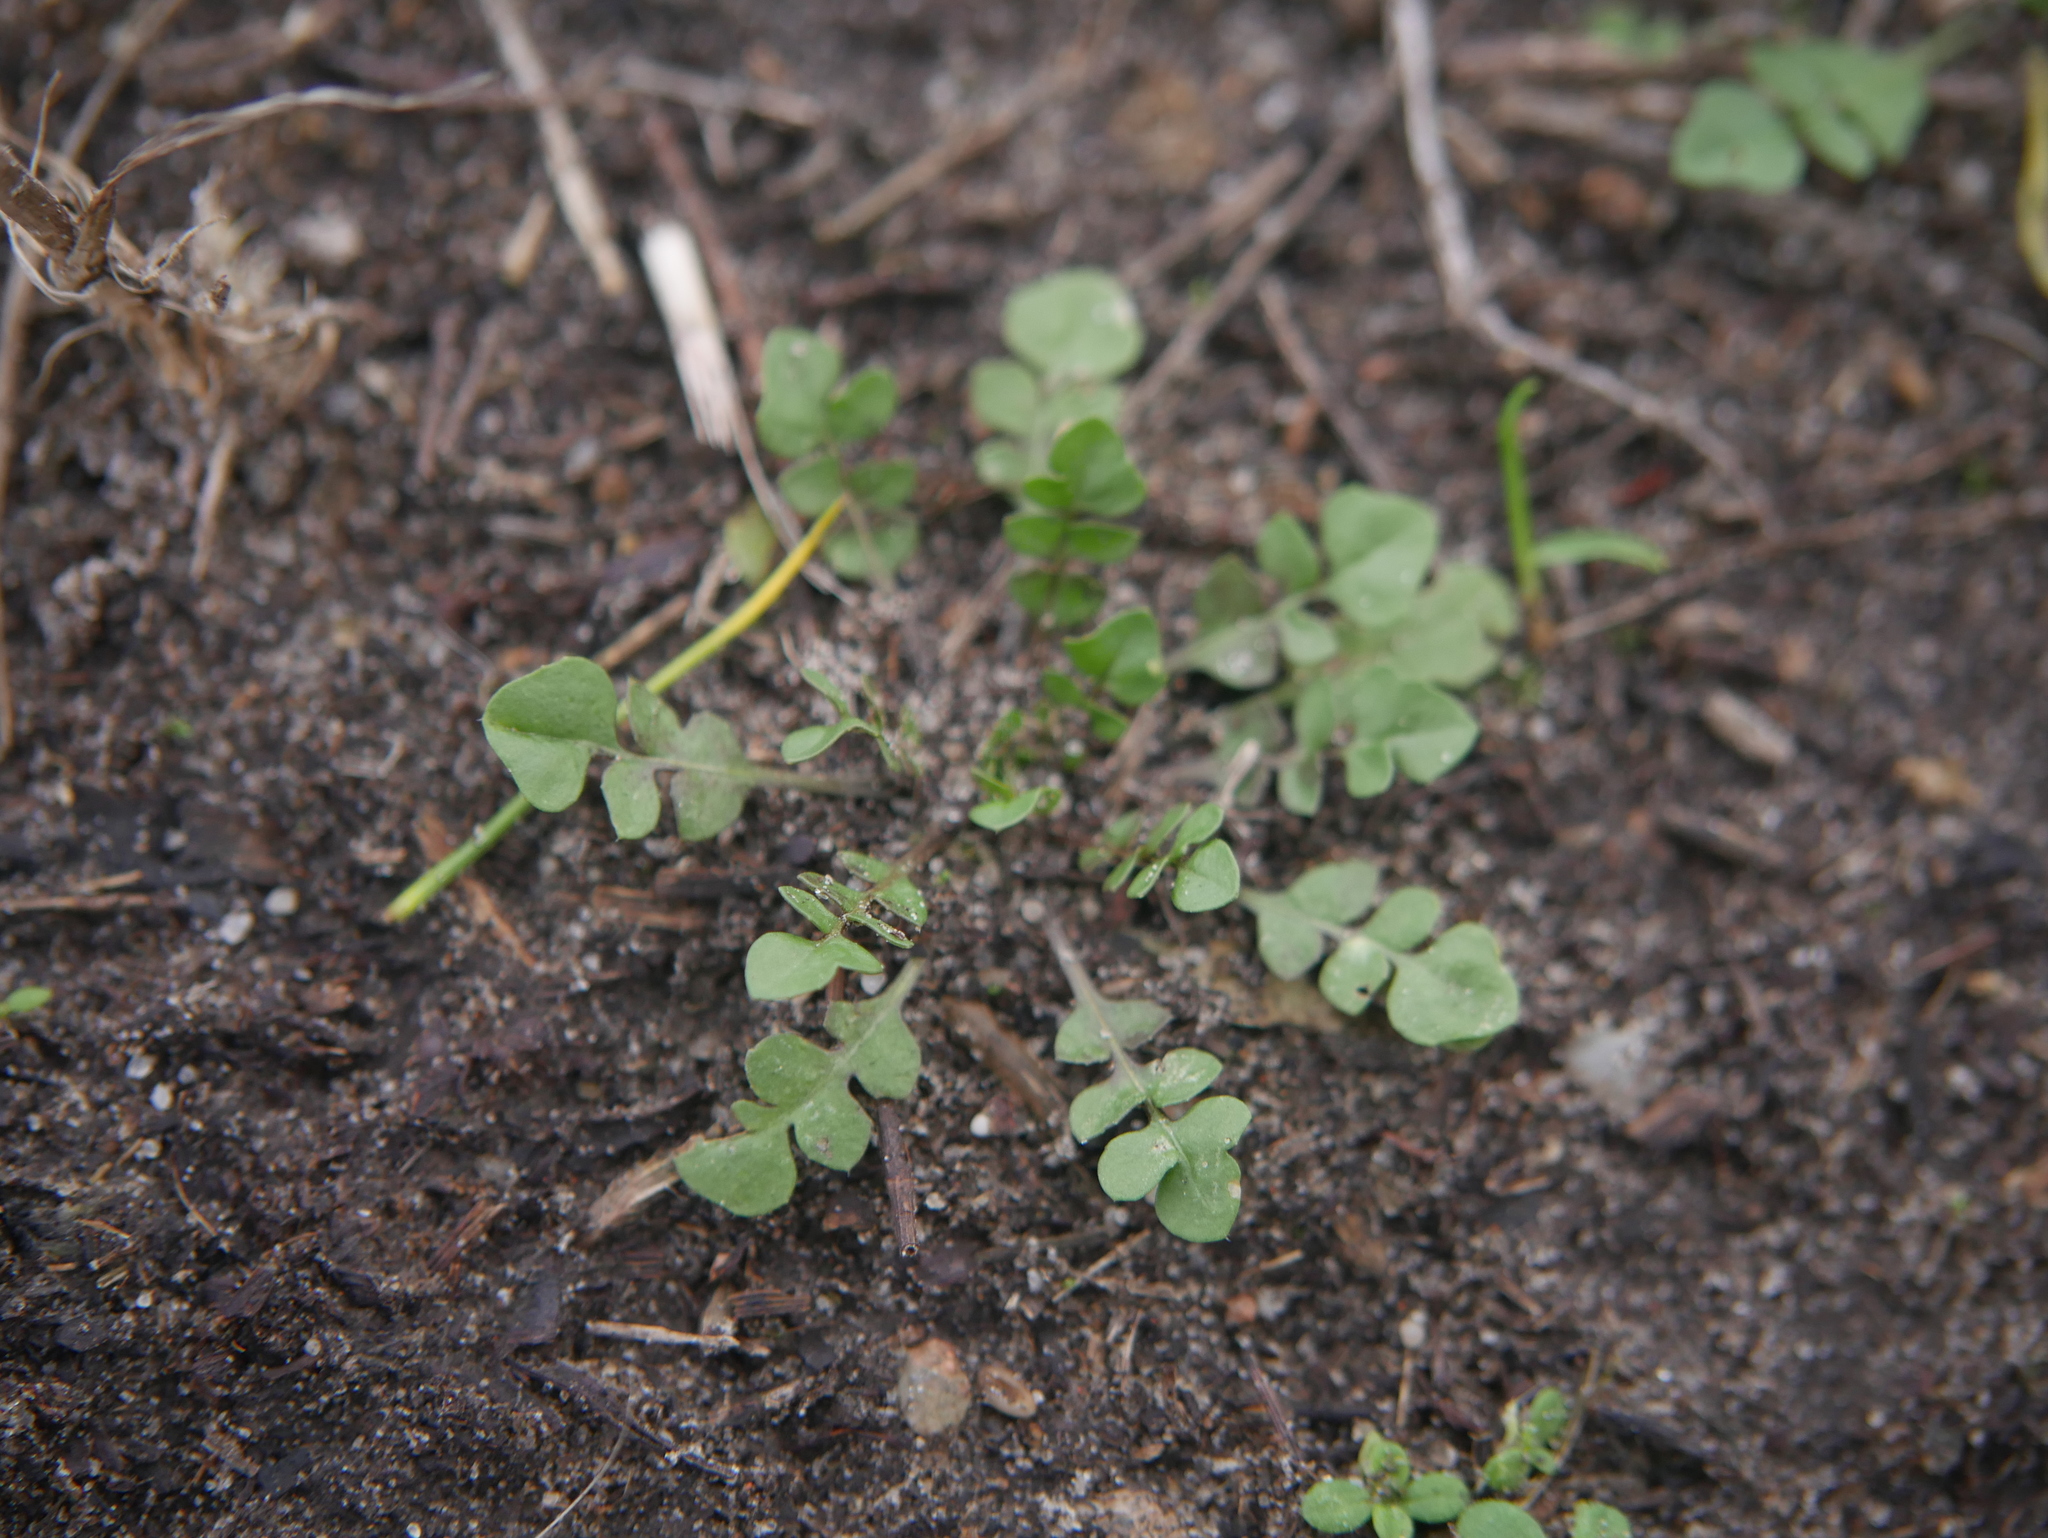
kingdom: Plantae
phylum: Tracheophyta
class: Magnoliopsida
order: Brassicales
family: Brassicaceae
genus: Capsella
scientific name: Capsella bursa-pastoris
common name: Shepherd's purse
